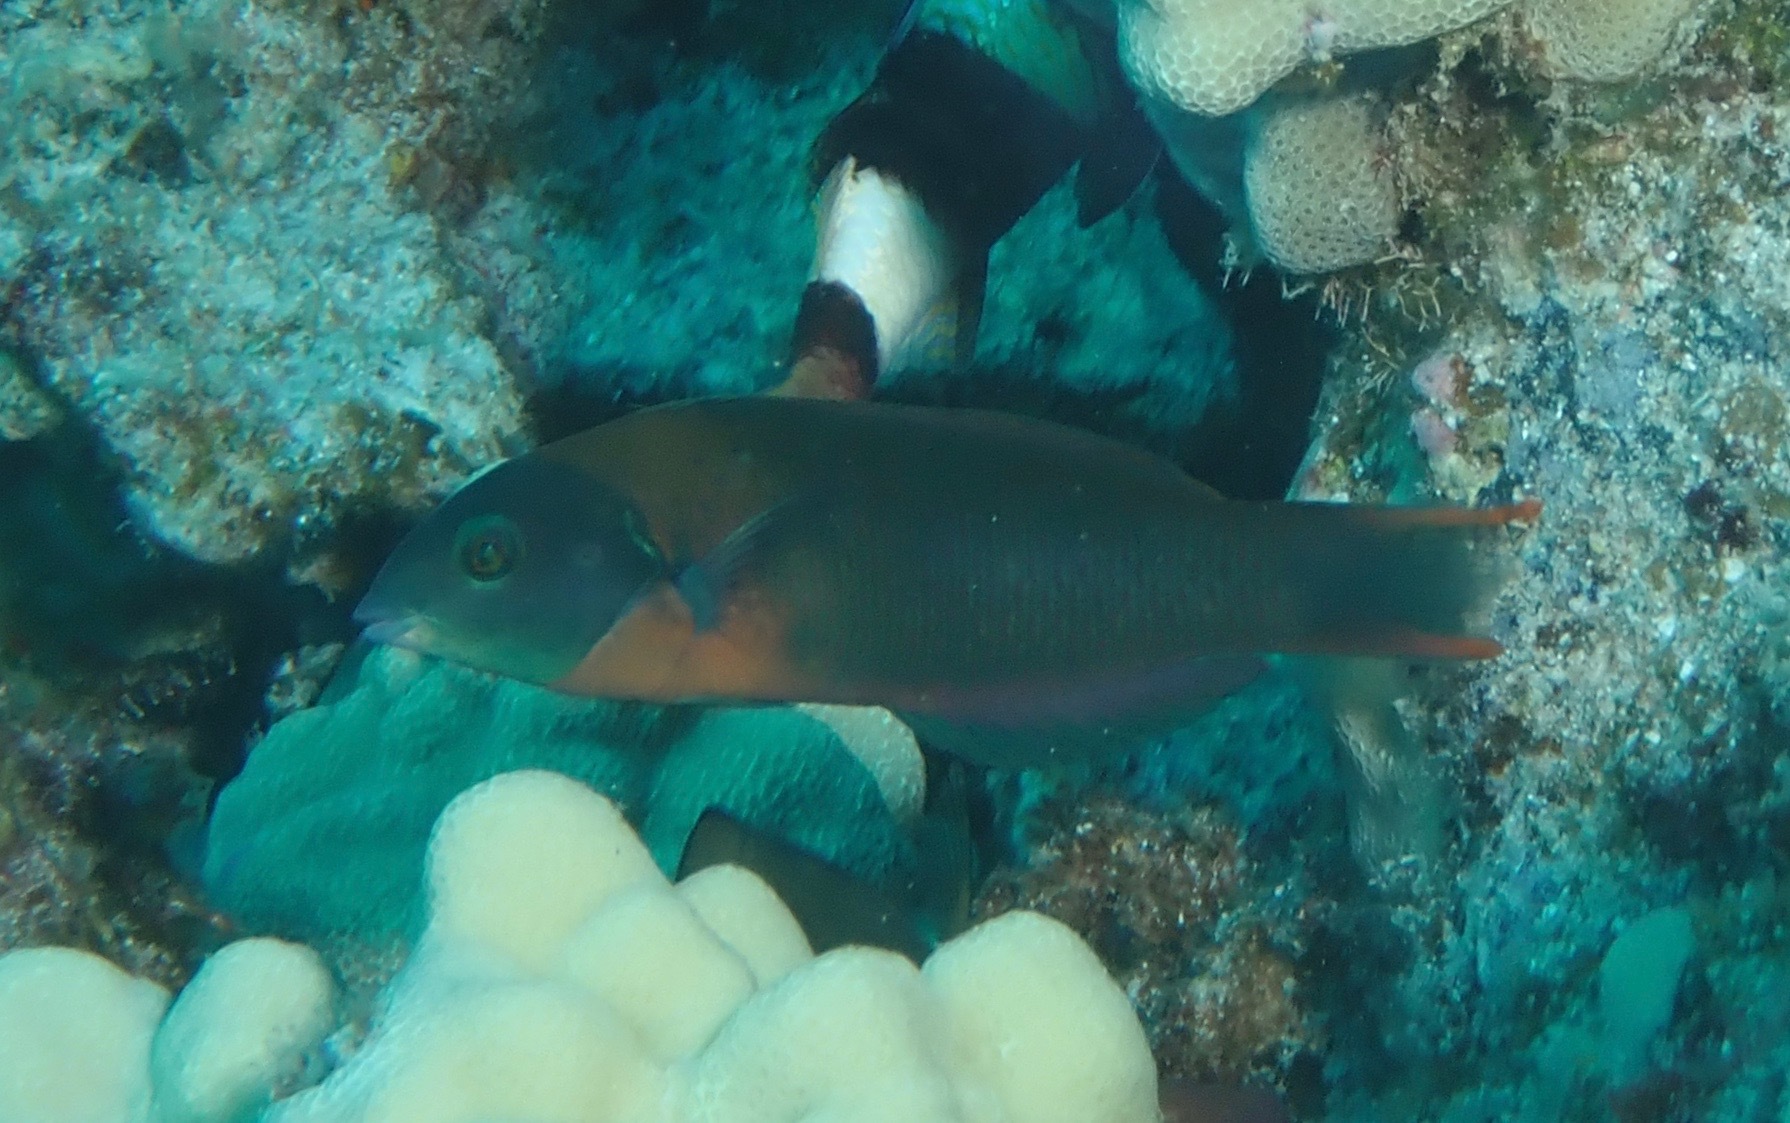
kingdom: Animalia
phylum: Chordata
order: Perciformes
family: Labridae
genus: Thalassoma
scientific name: Thalassoma duperrey
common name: Saddle wrasse
